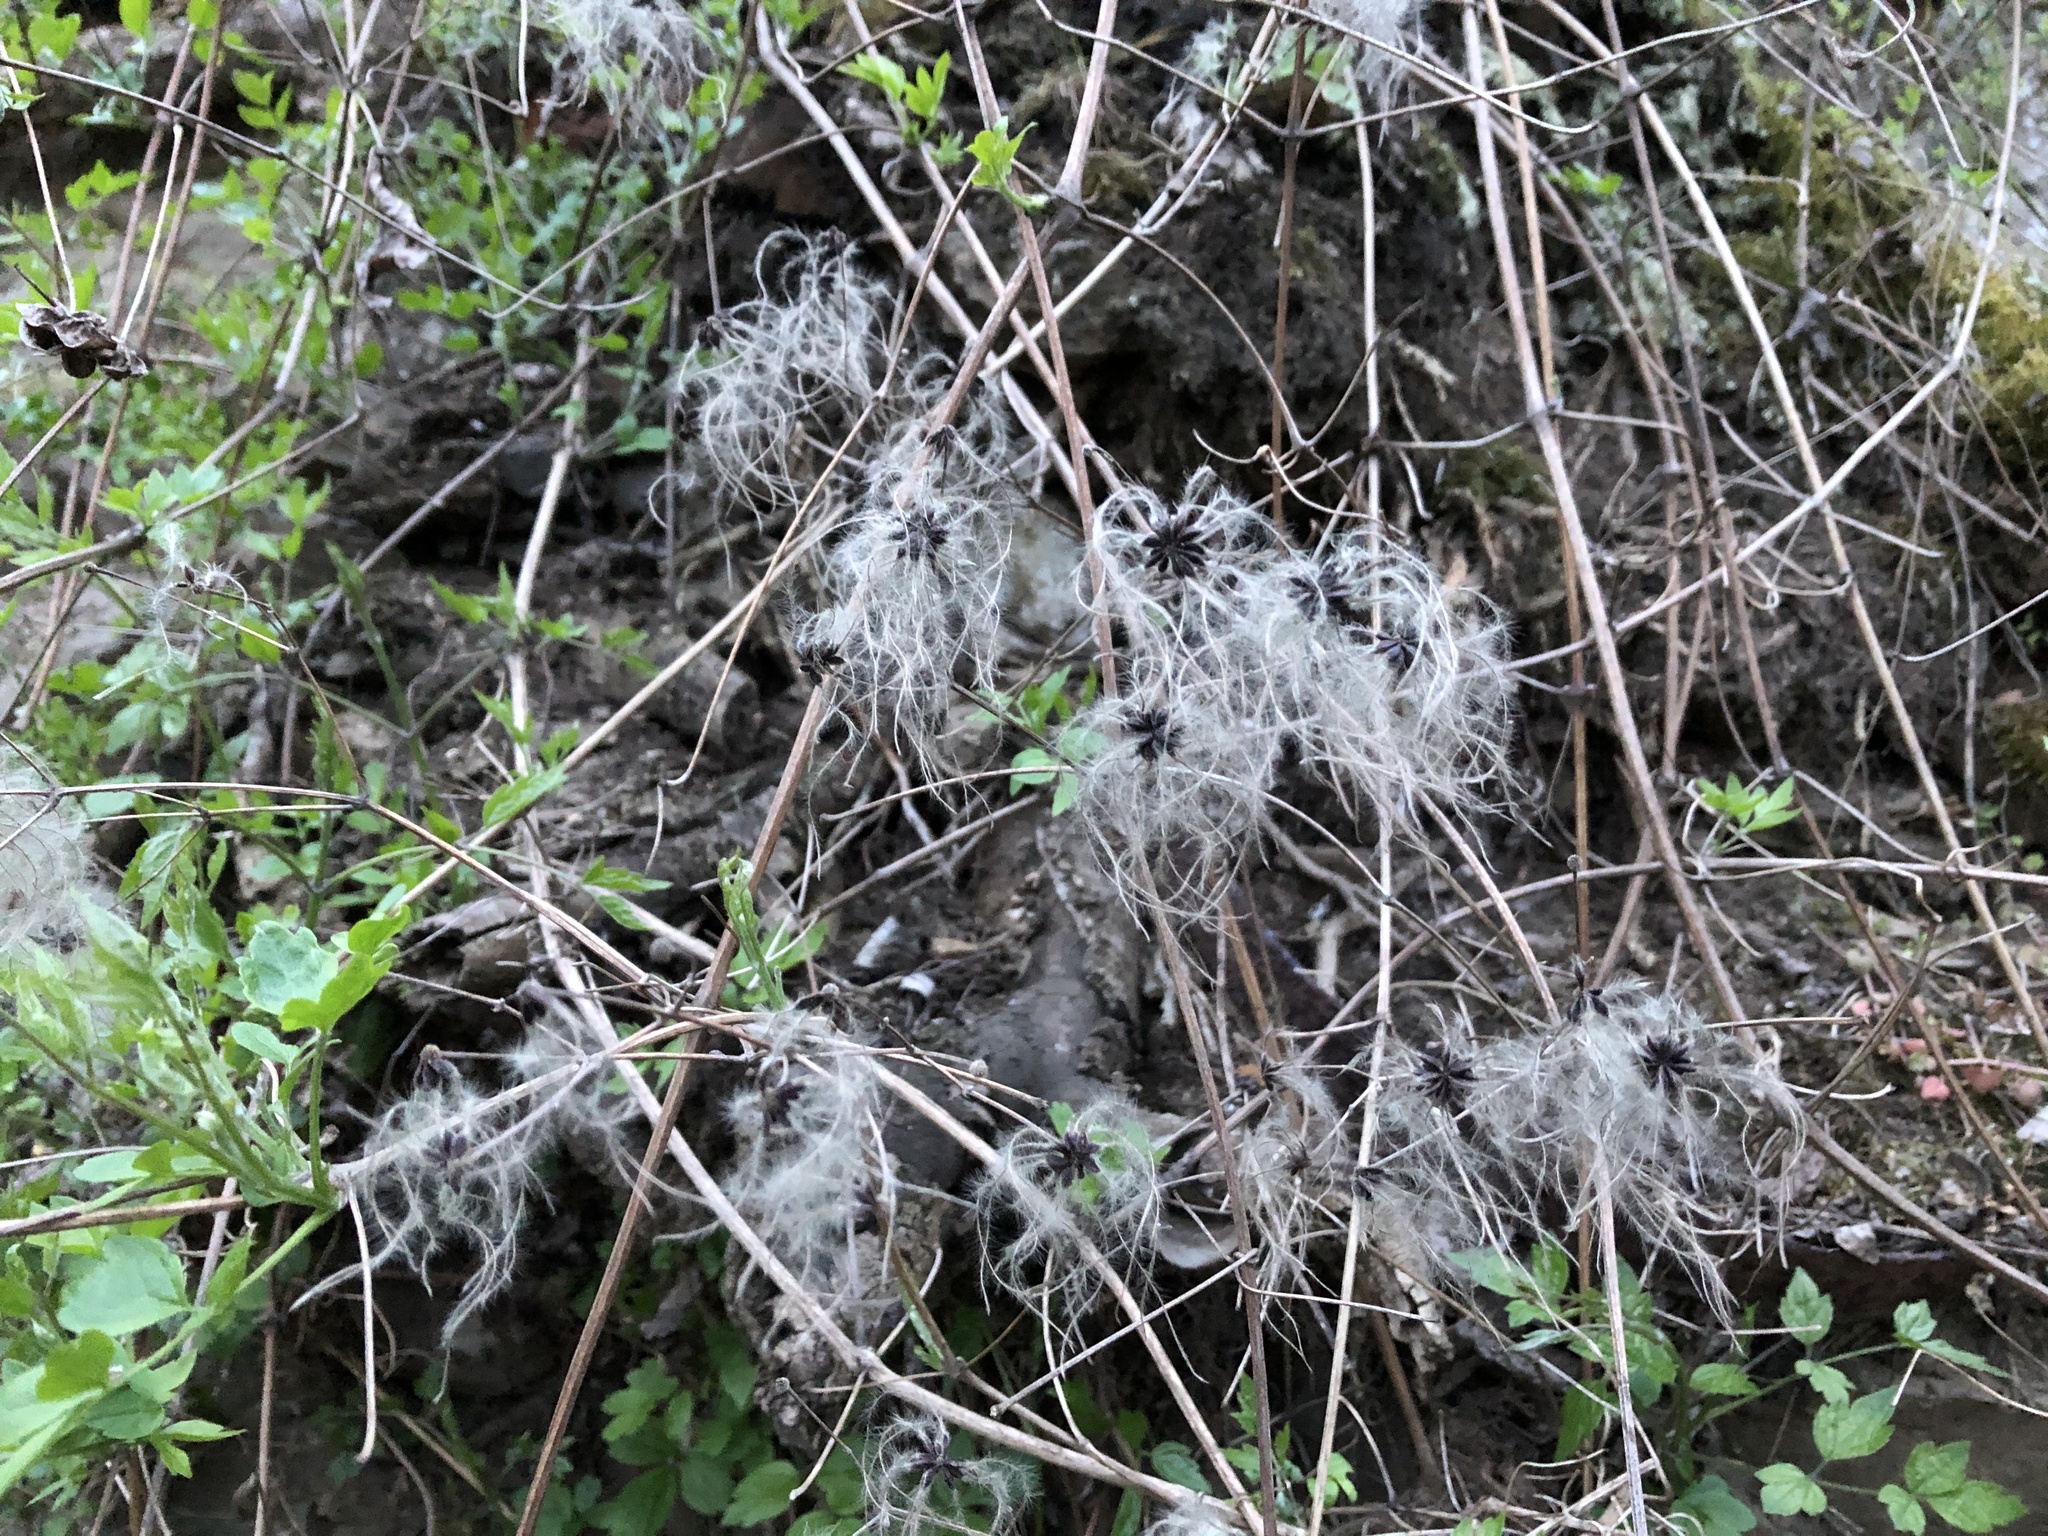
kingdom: Plantae
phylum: Tracheophyta
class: Magnoliopsida
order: Ranunculales
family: Ranunculaceae
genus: Clematis
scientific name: Clematis vitalba
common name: Evergreen clematis
